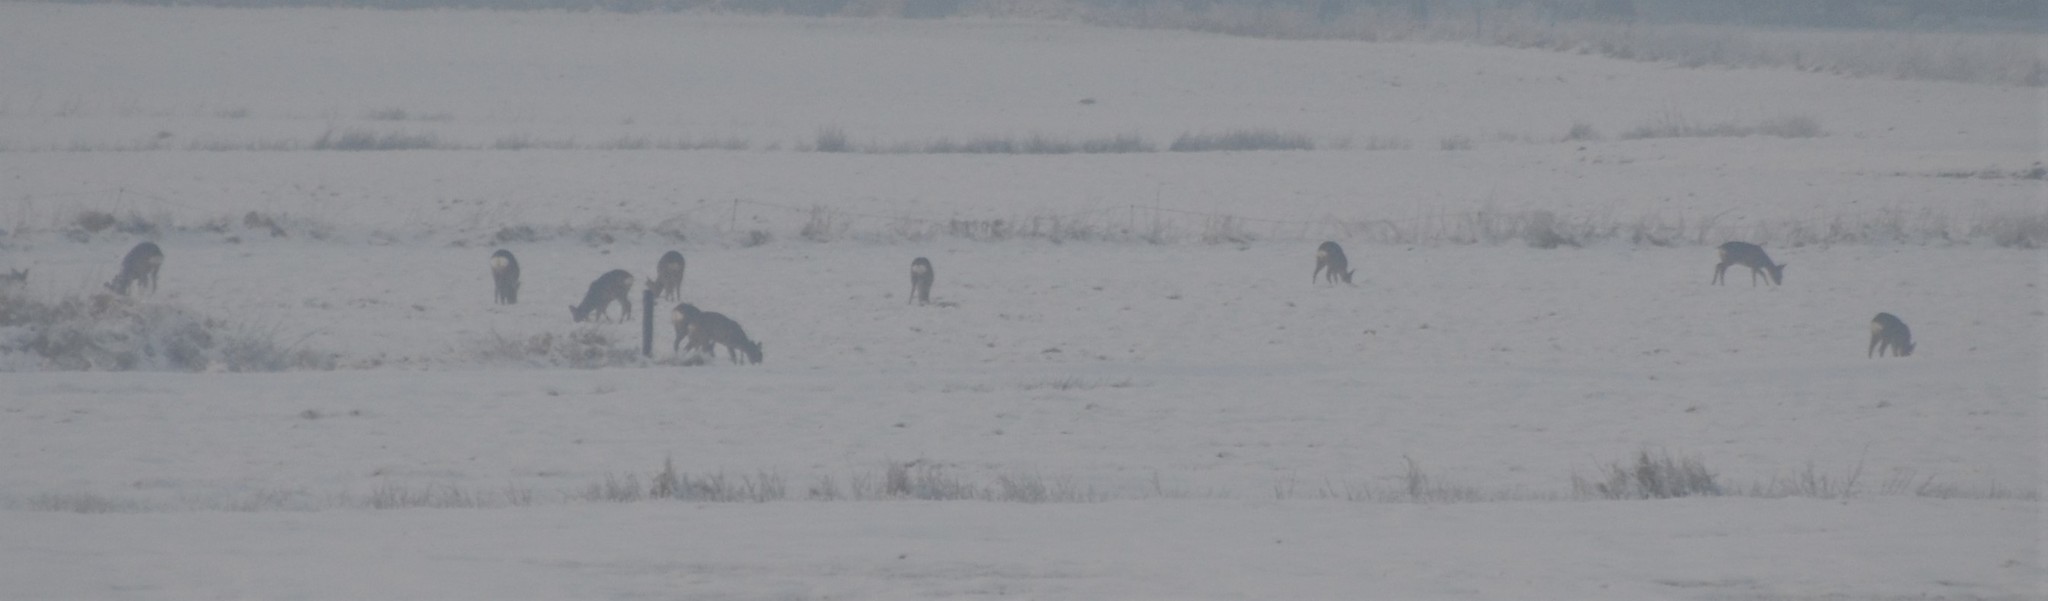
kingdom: Animalia
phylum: Chordata
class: Mammalia
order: Artiodactyla
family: Cervidae
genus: Capreolus
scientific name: Capreolus capreolus
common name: Western roe deer
